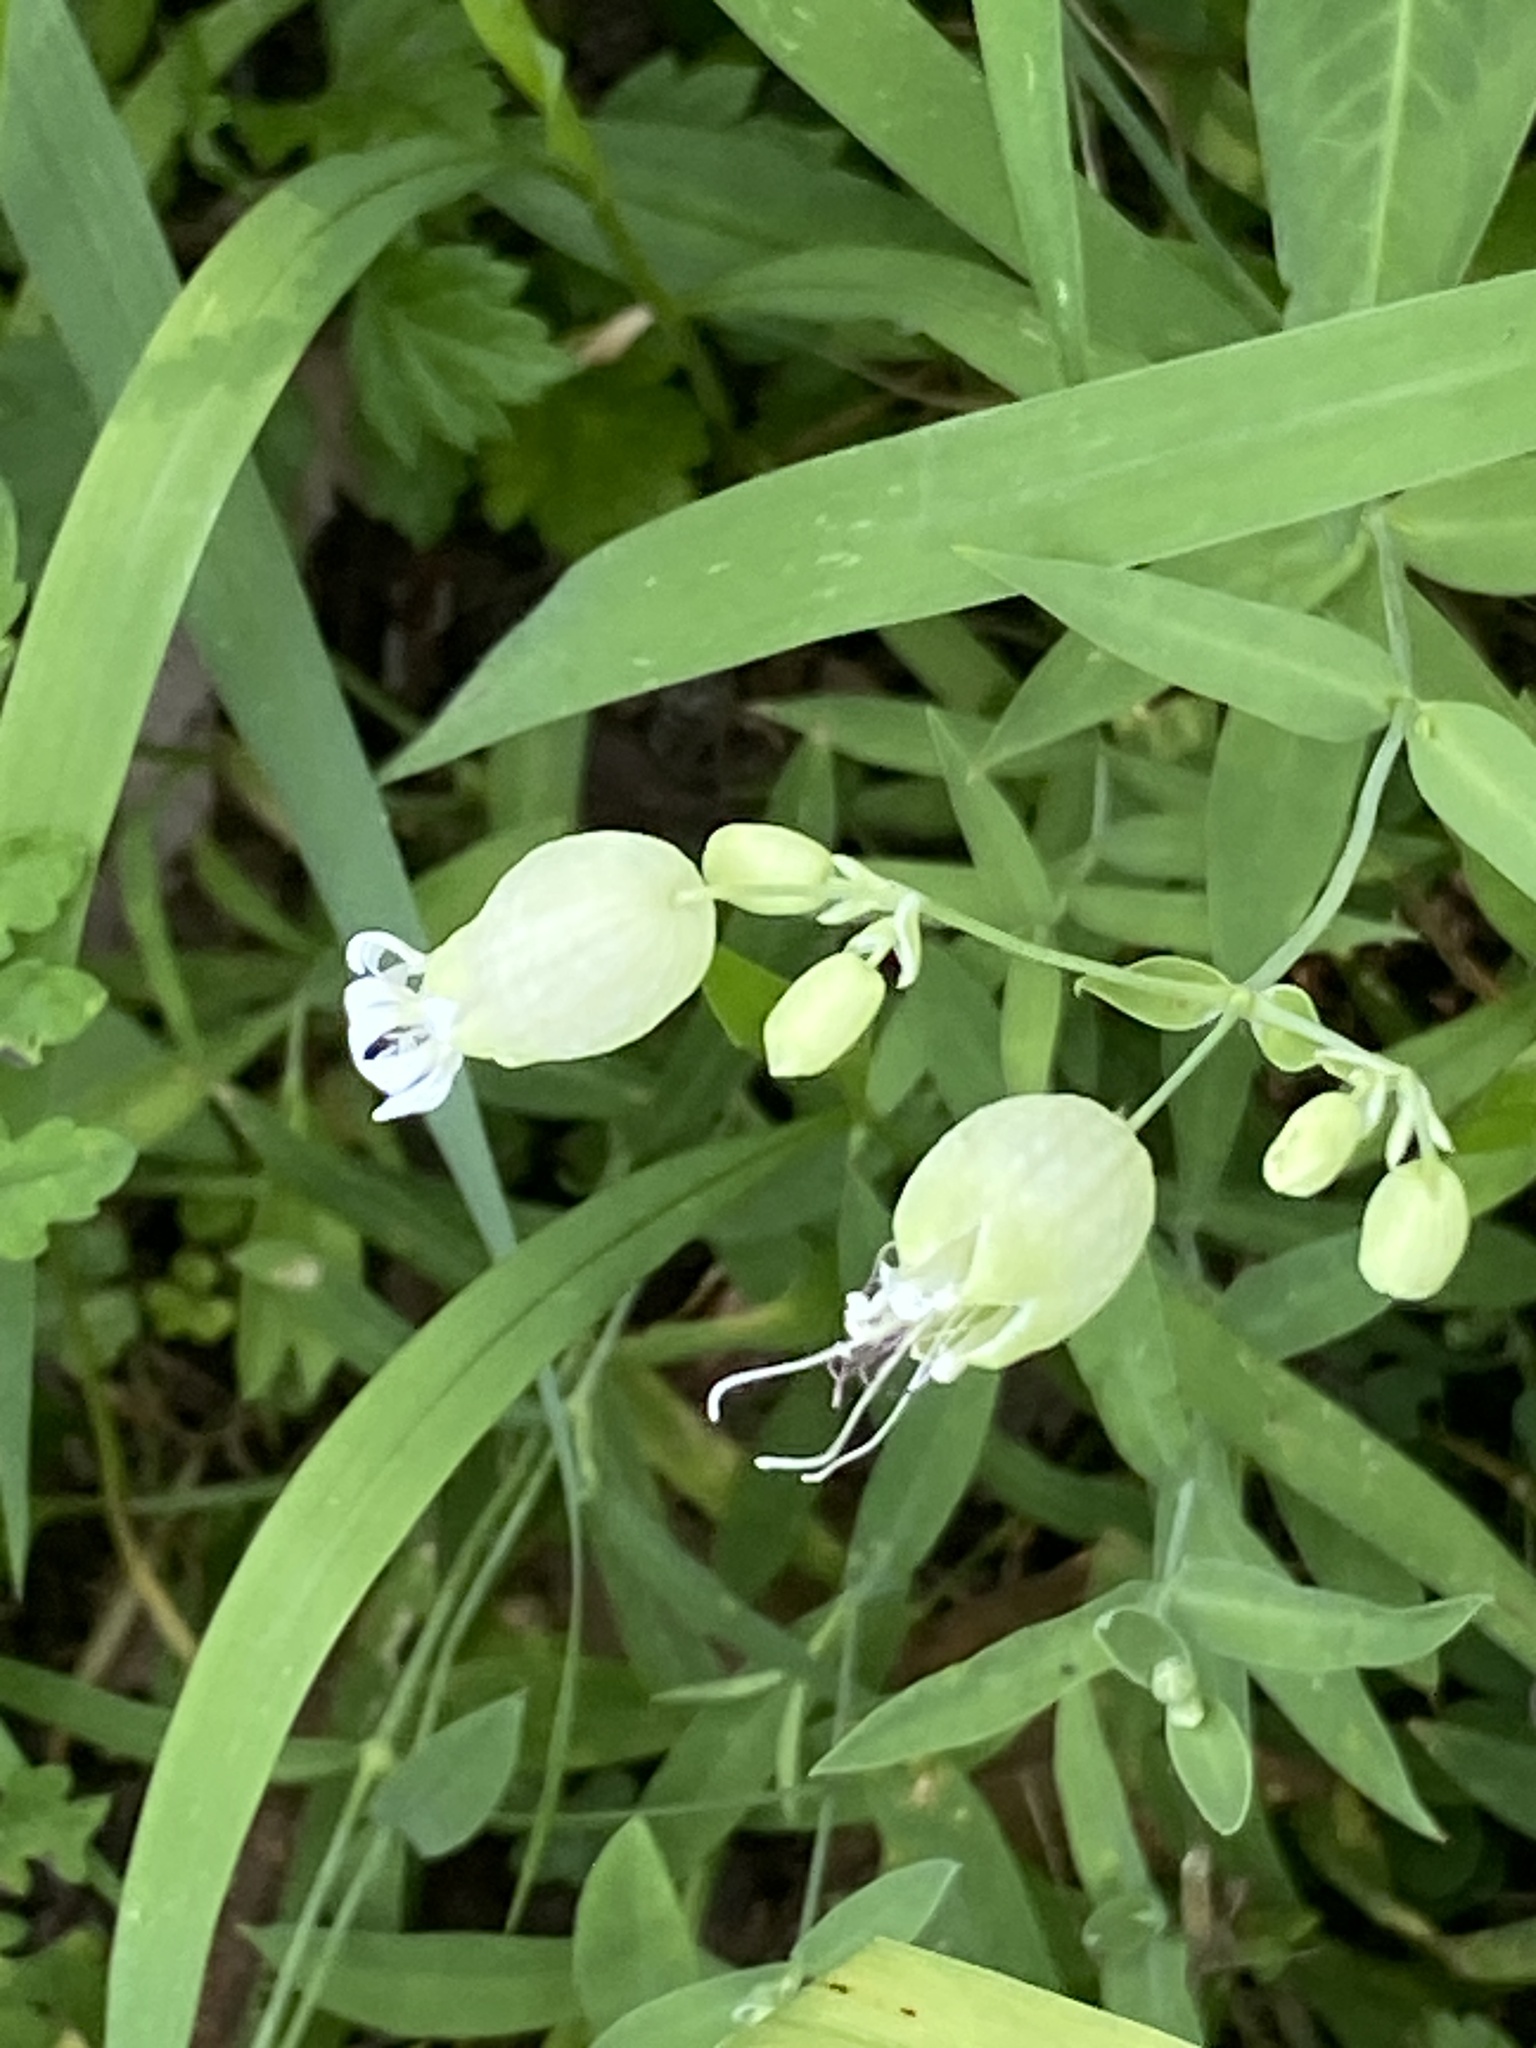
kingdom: Plantae
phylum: Tracheophyta
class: Magnoliopsida
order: Caryophyllales
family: Caryophyllaceae
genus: Silene
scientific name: Silene vulgaris
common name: Bladder campion
